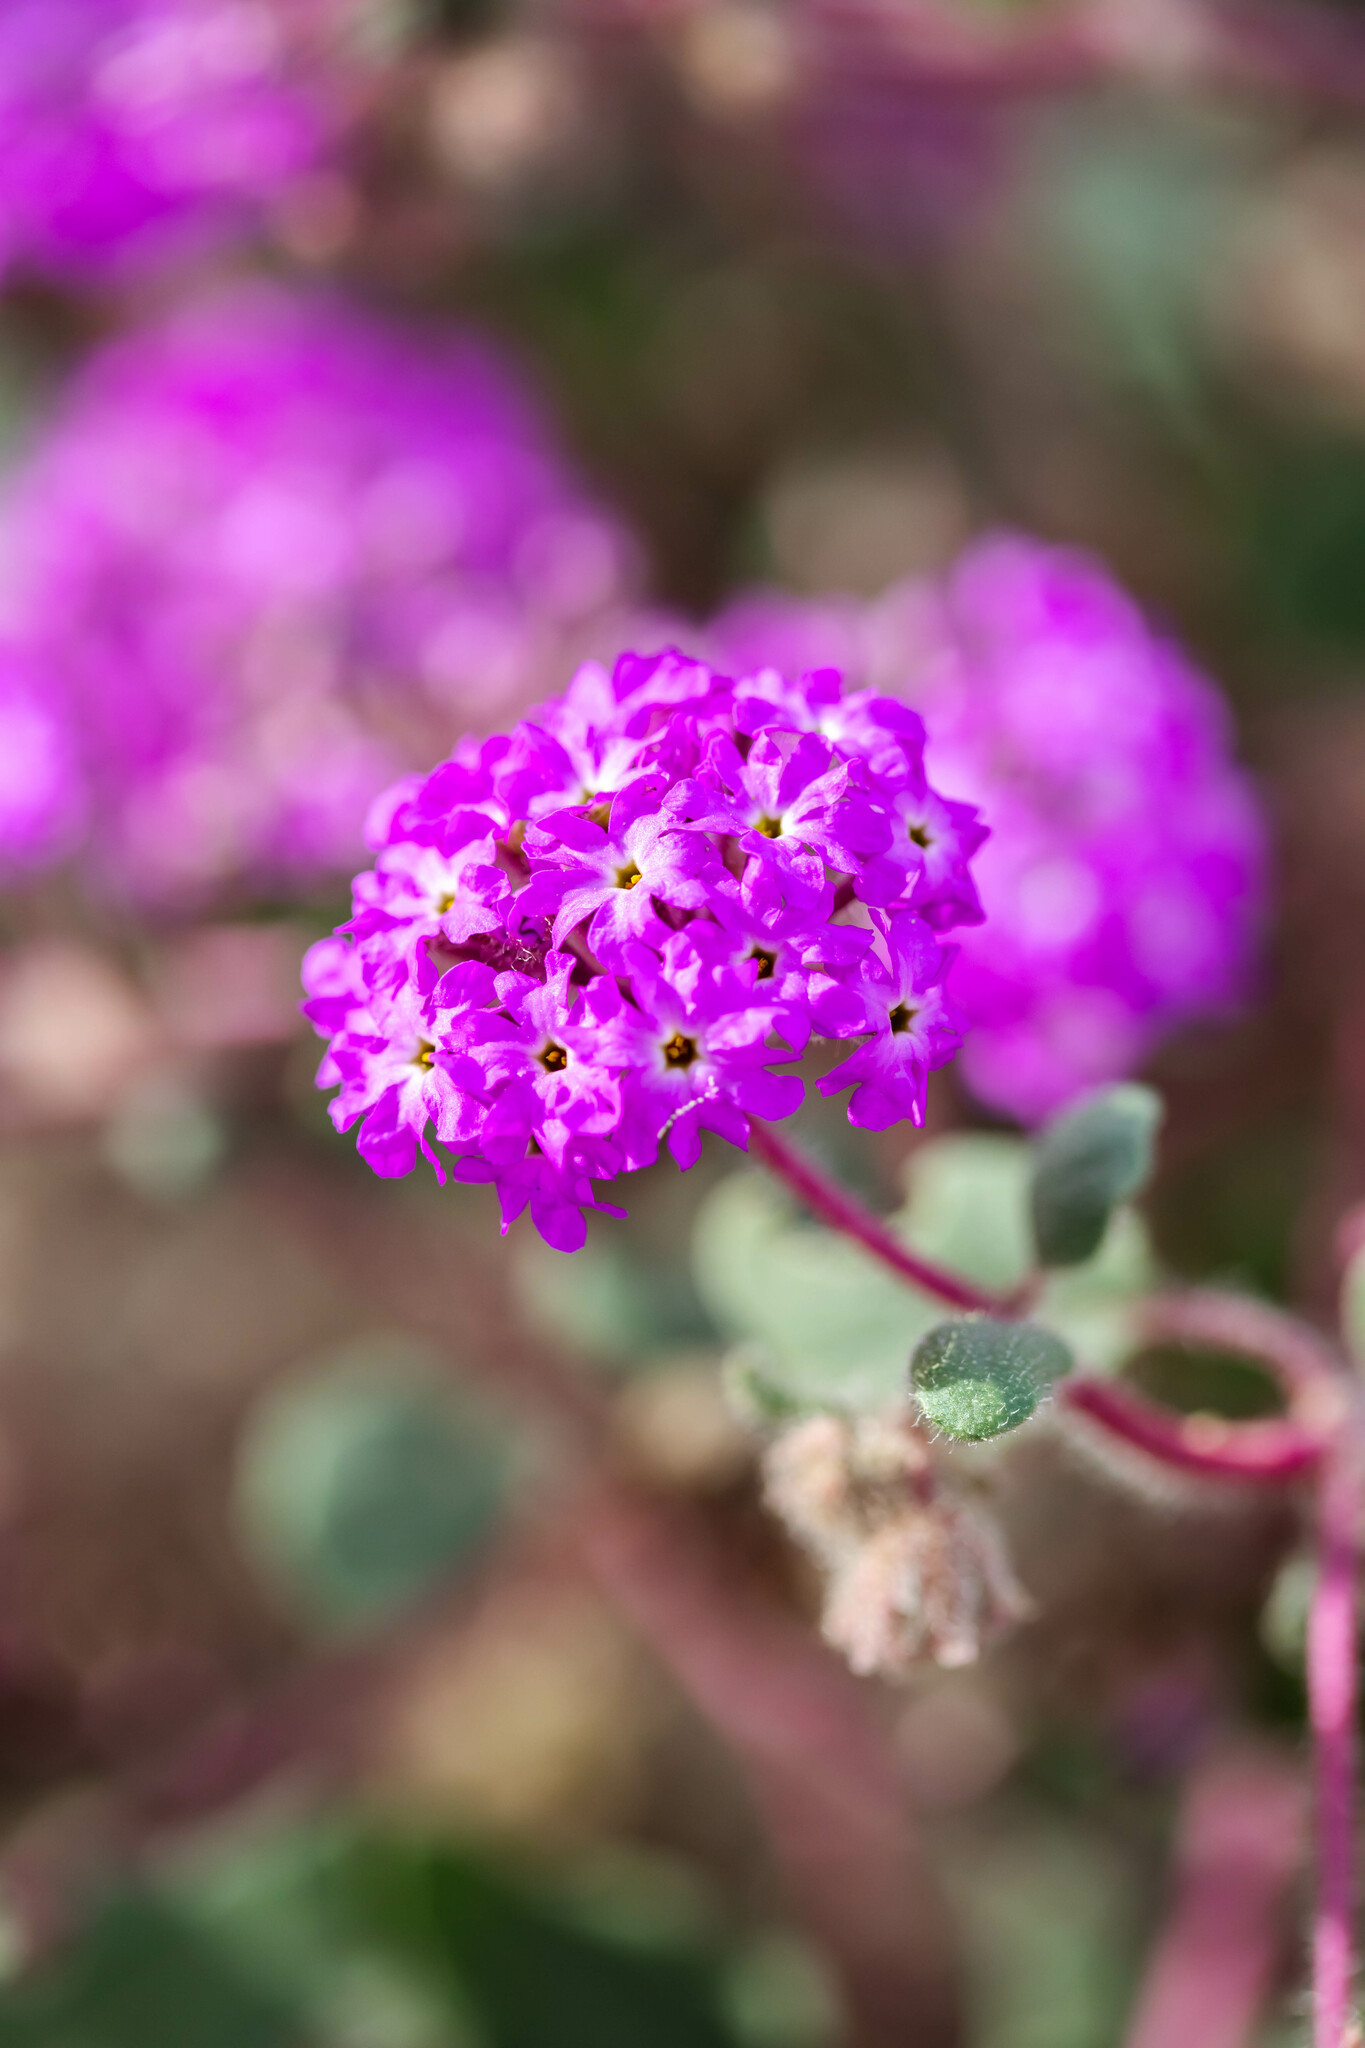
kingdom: Plantae
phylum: Tracheophyta
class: Magnoliopsida
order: Caryophyllales
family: Nyctaginaceae
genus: Abronia
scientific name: Abronia villosa
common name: Desert sand-verbena
